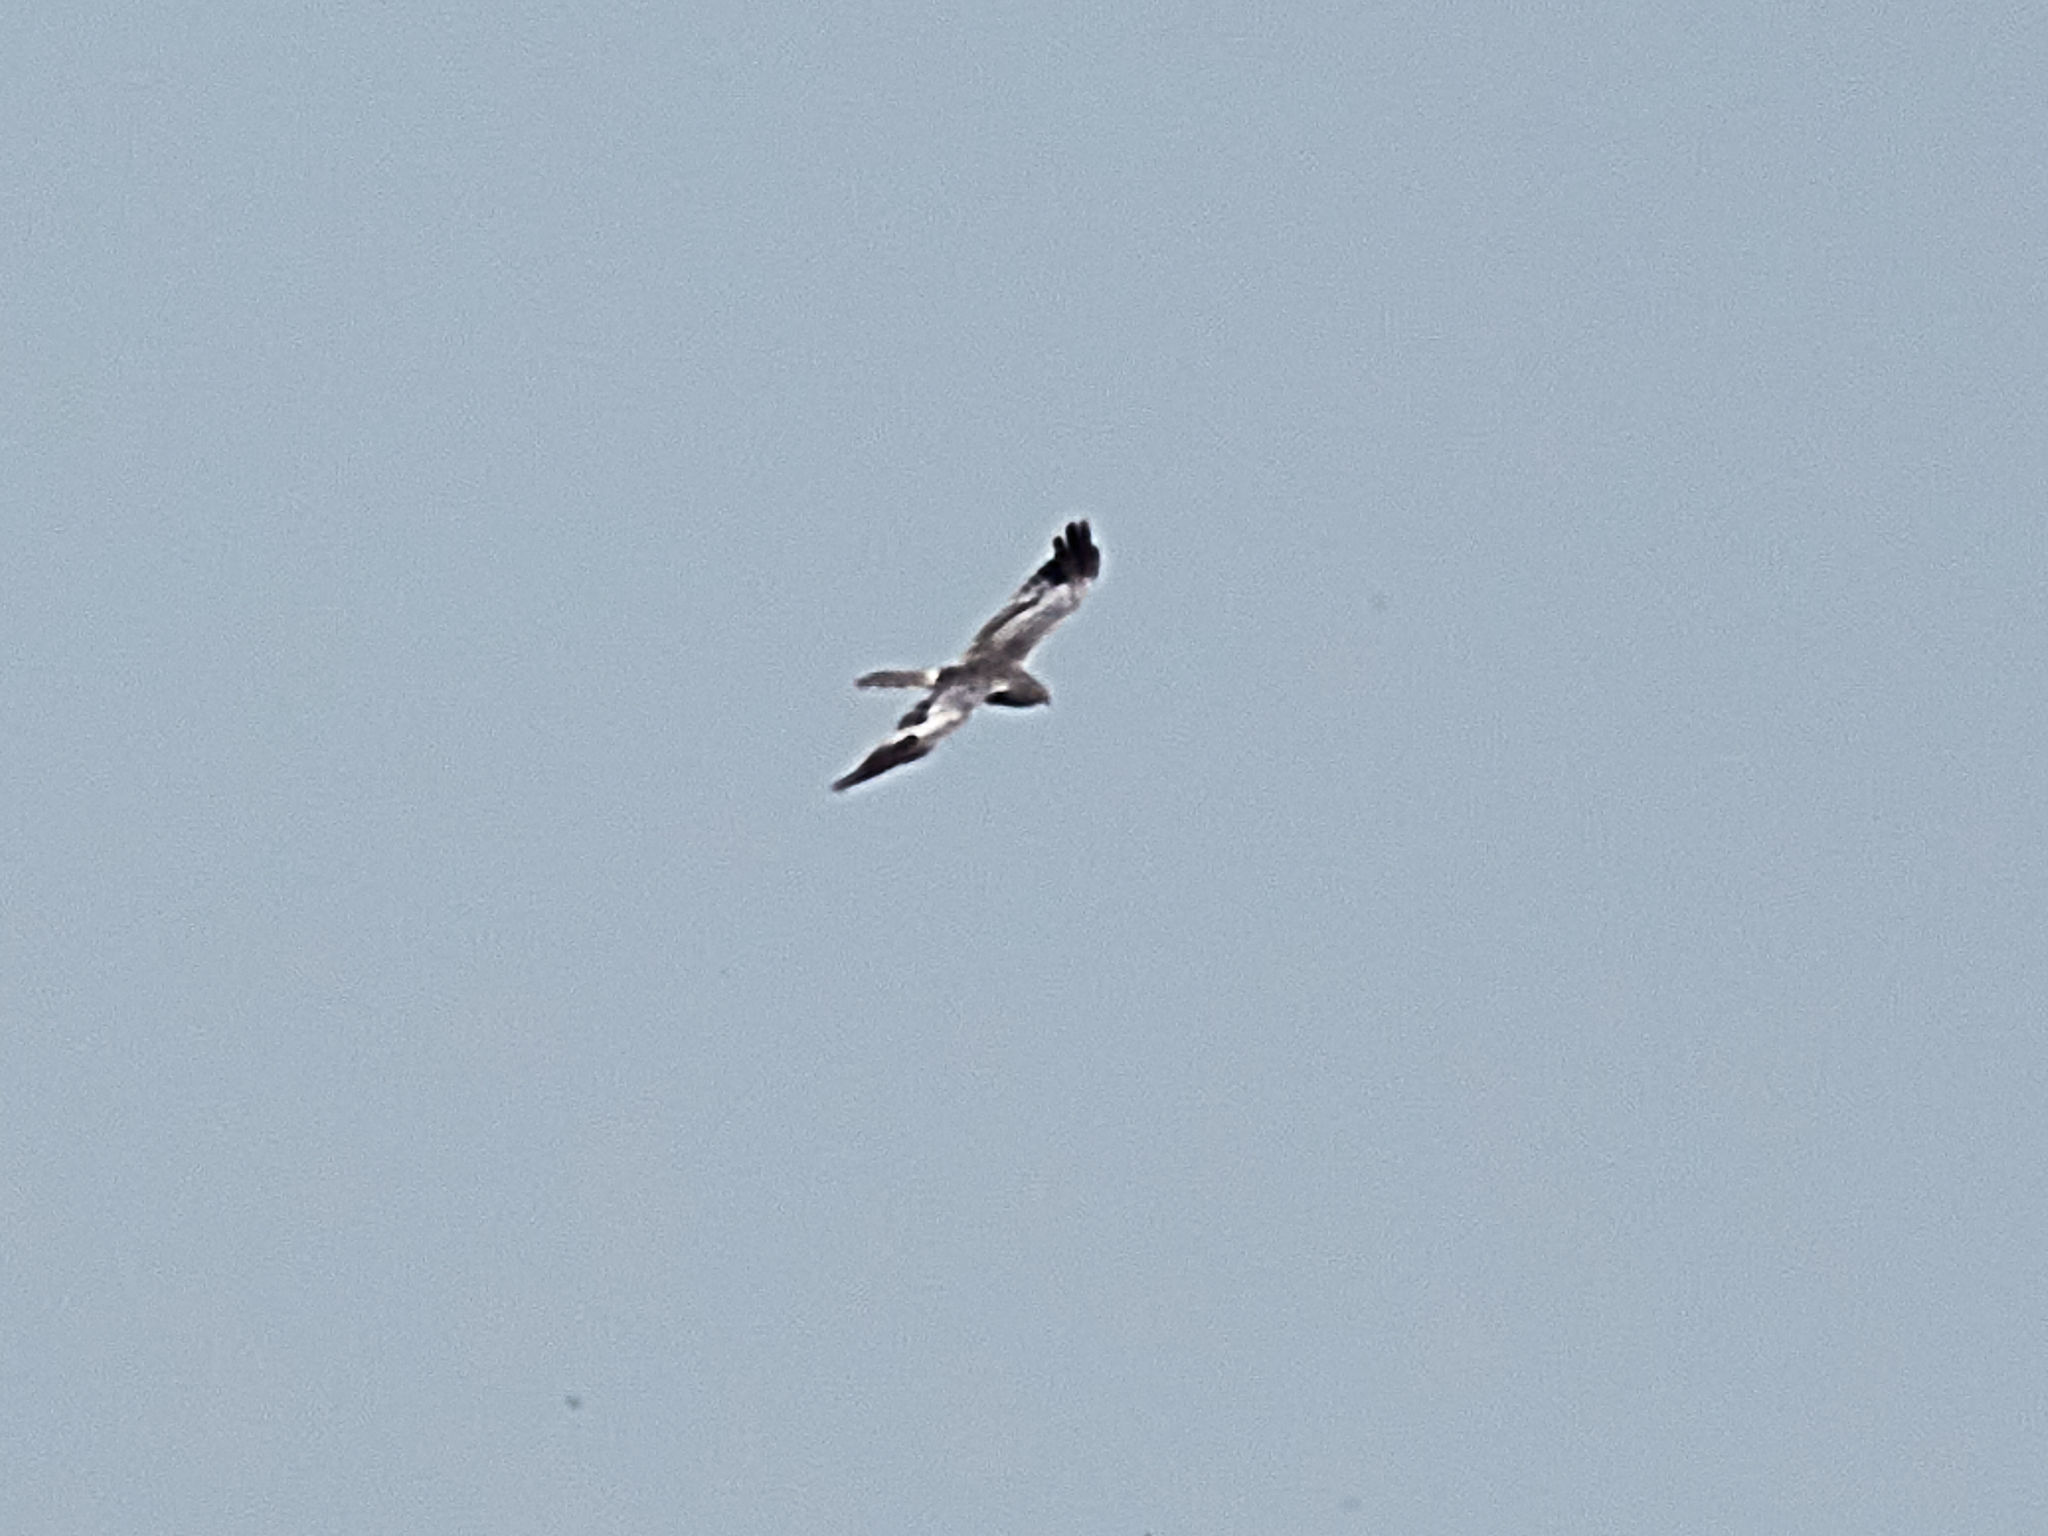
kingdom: Animalia
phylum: Chordata
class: Aves
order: Accipitriformes
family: Accipitridae
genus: Circus
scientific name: Circus pygargus
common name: Montagu's harrier
